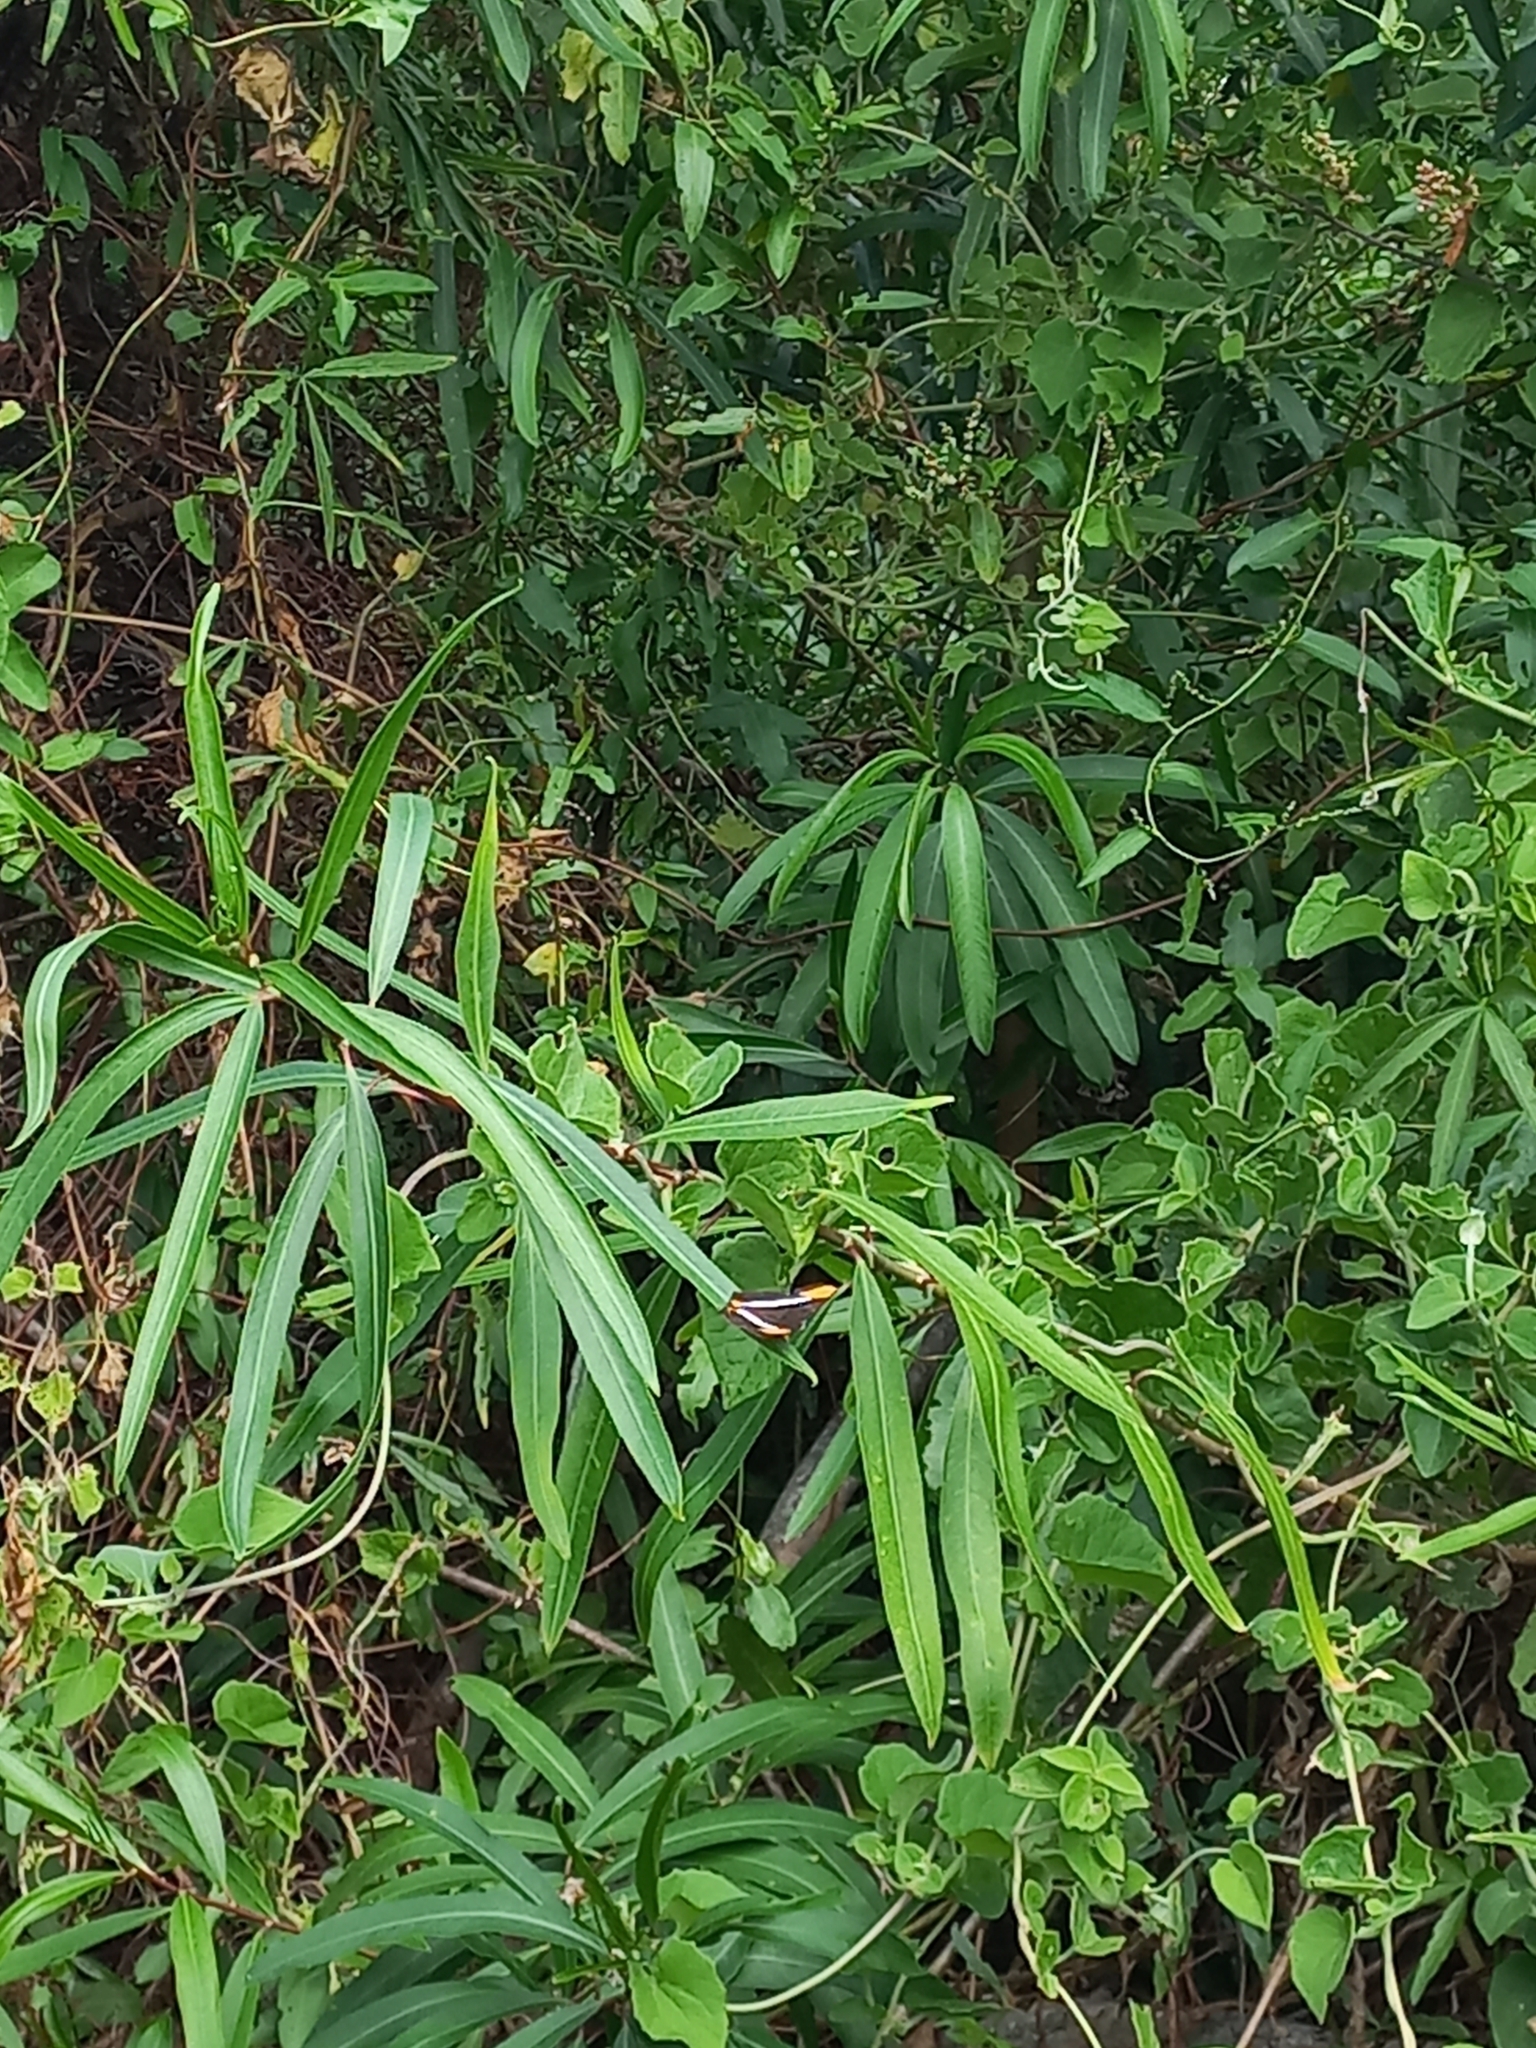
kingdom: Animalia
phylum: Arthropoda
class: Insecta
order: Lepidoptera
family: Nymphalidae
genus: Limenitis
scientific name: Limenitis syma
